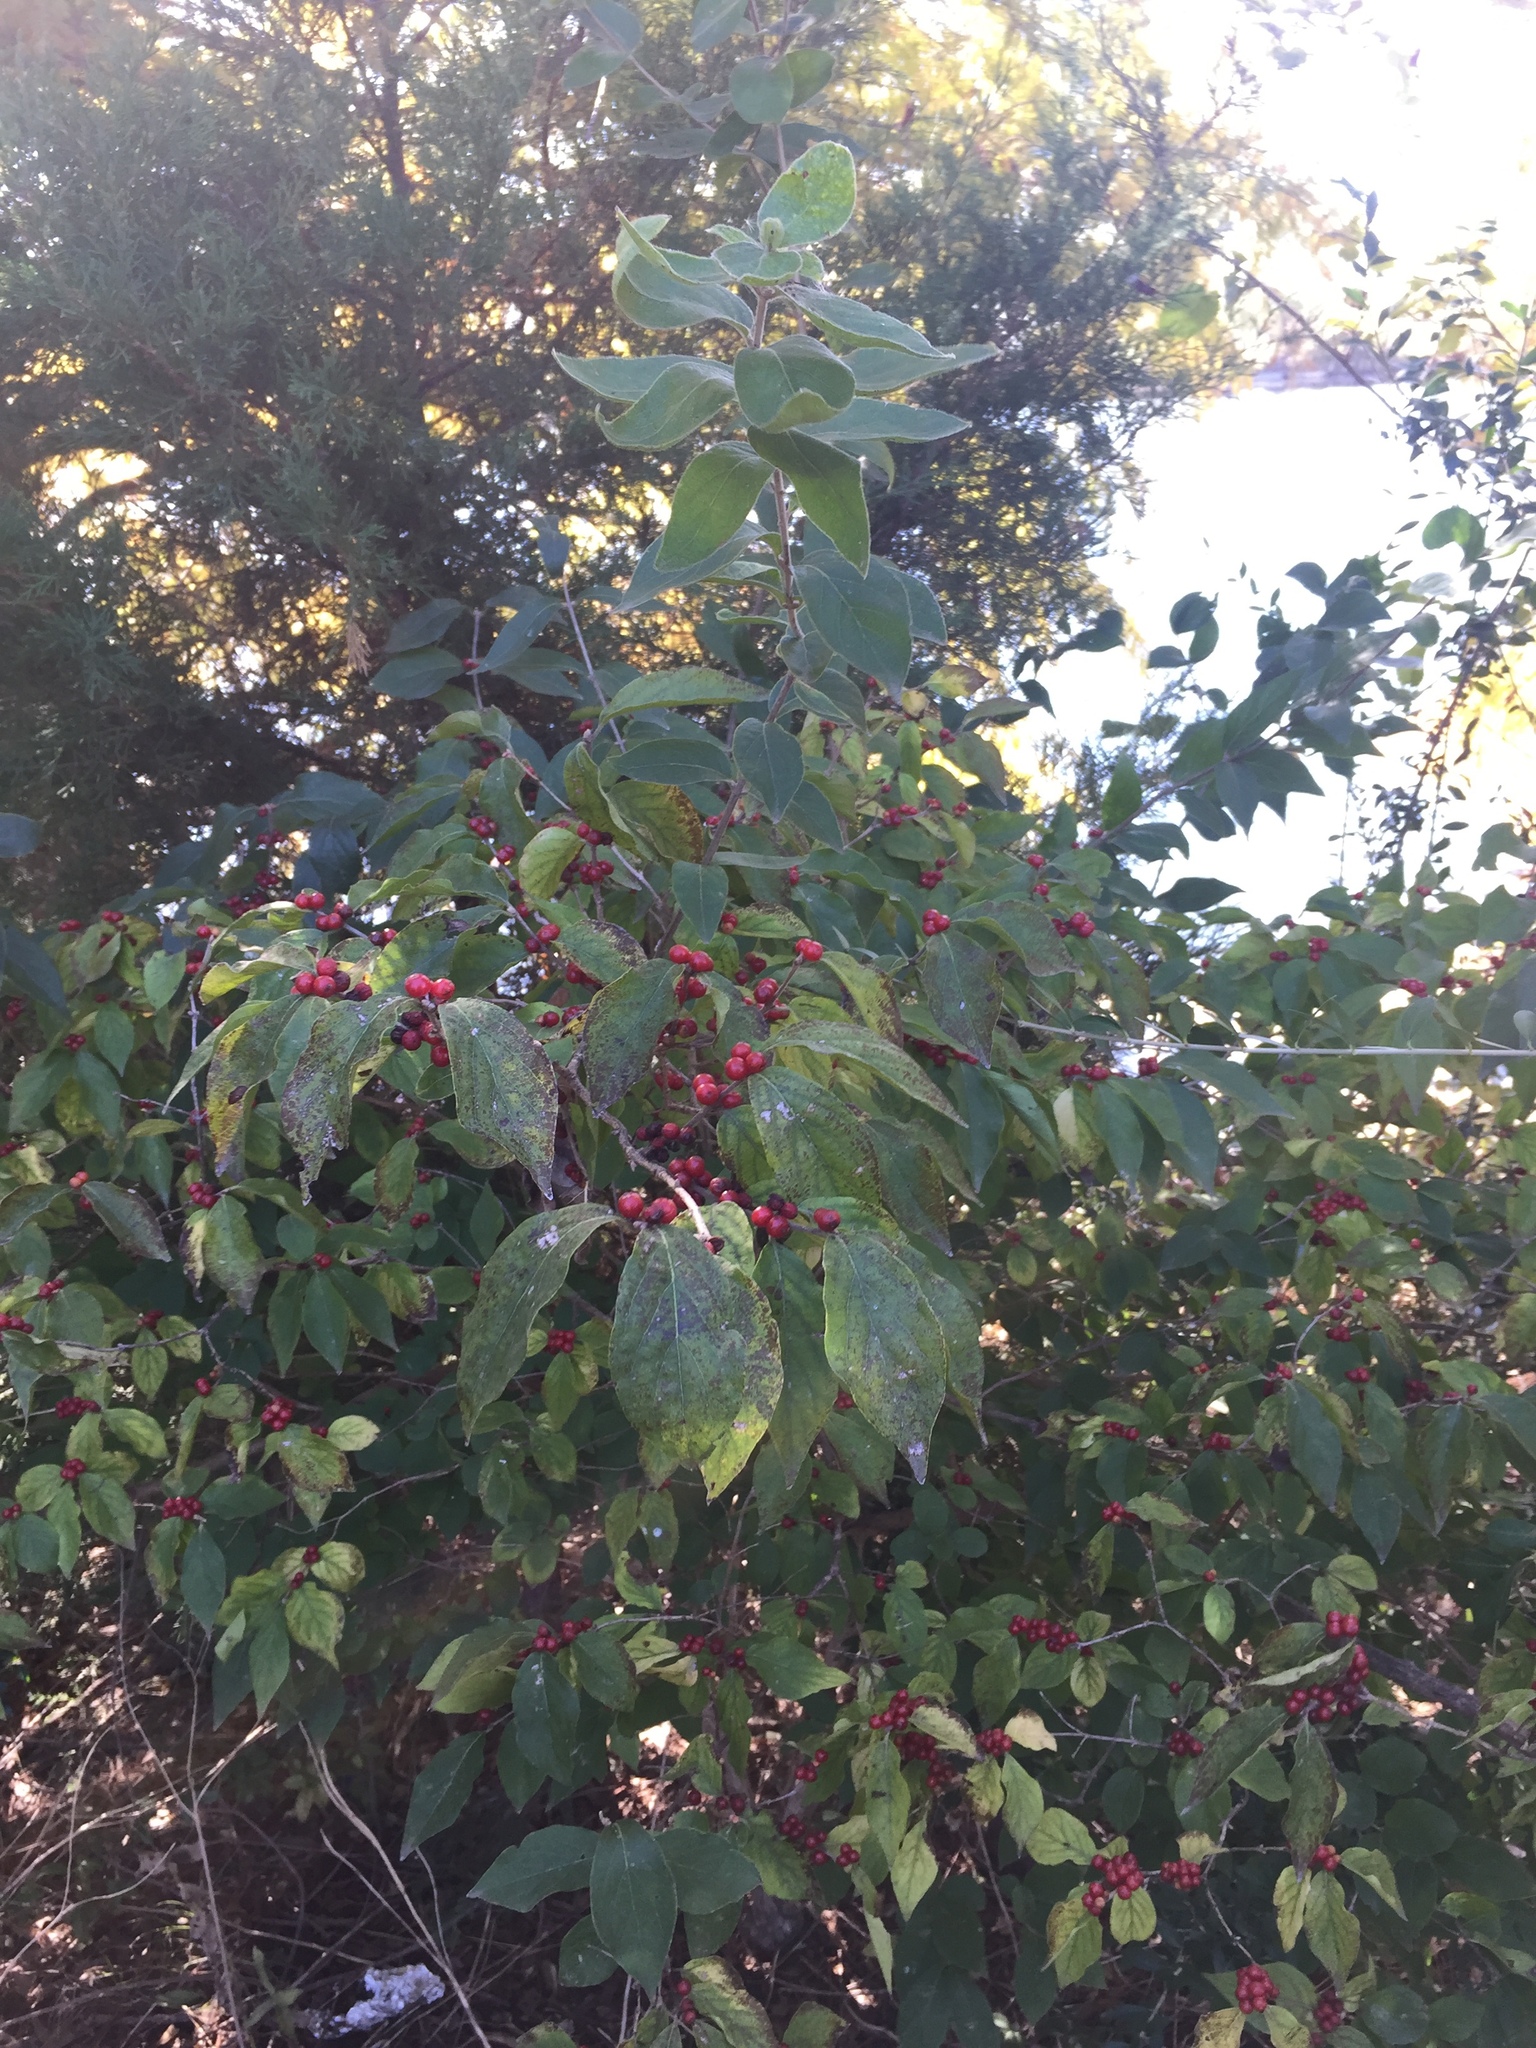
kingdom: Plantae
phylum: Tracheophyta
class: Magnoliopsida
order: Dipsacales
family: Caprifoliaceae
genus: Lonicera
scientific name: Lonicera maackii
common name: Amur honeysuckle
